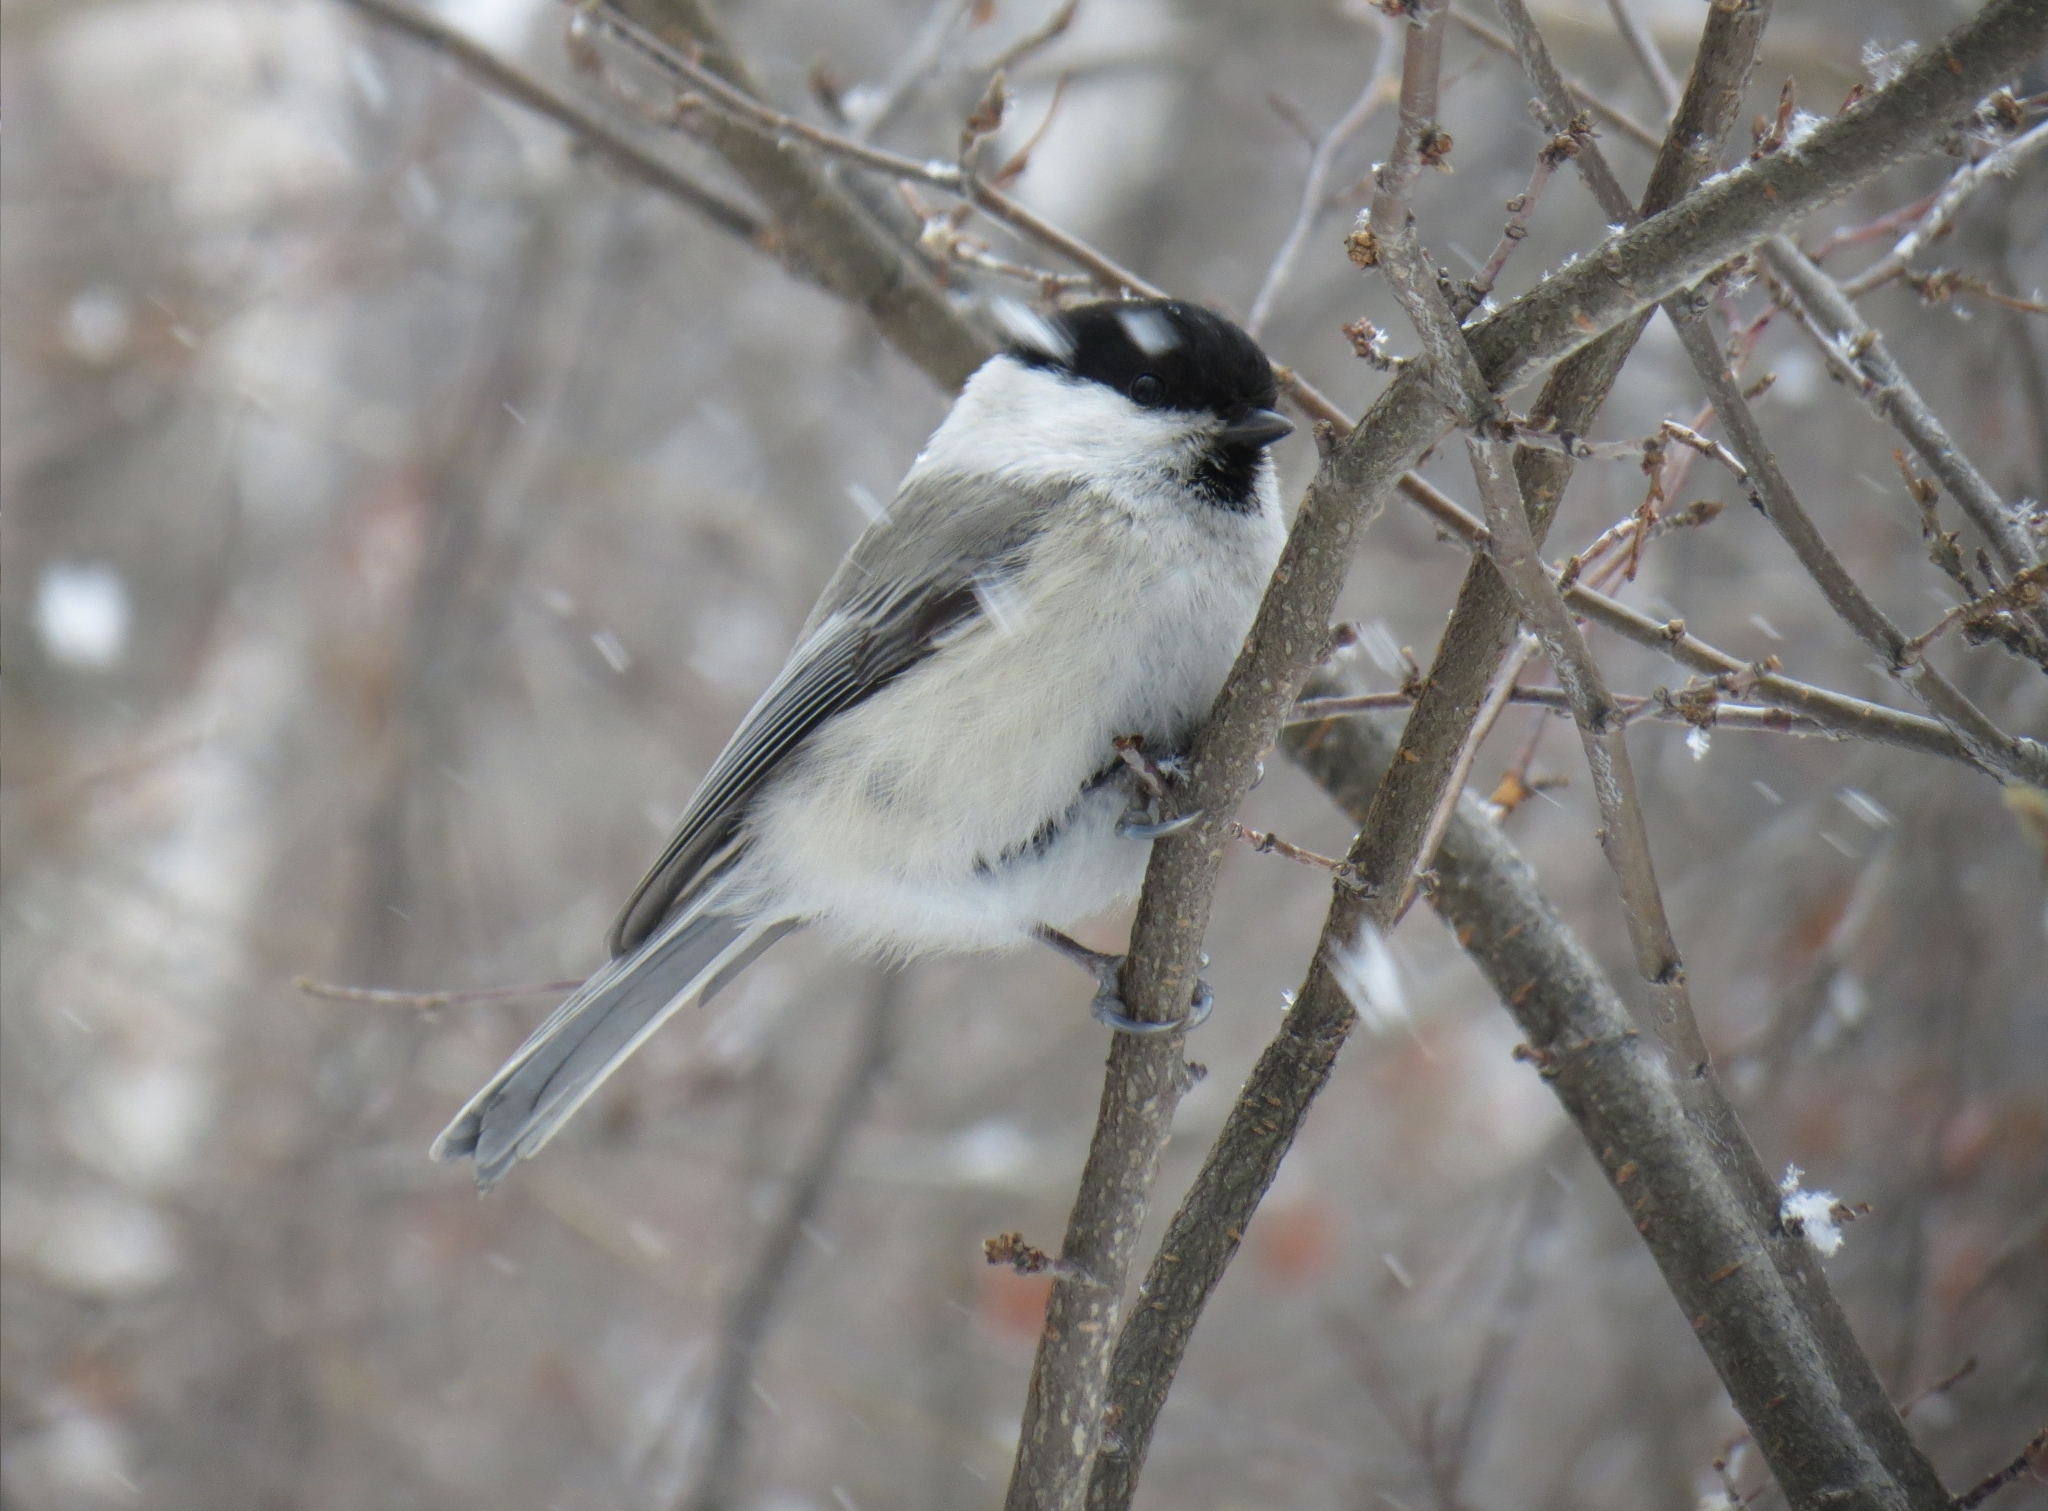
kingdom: Animalia
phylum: Chordata
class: Aves
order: Passeriformes
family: Paridae
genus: Poecile
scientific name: Poecile montanus
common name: Willow tit
